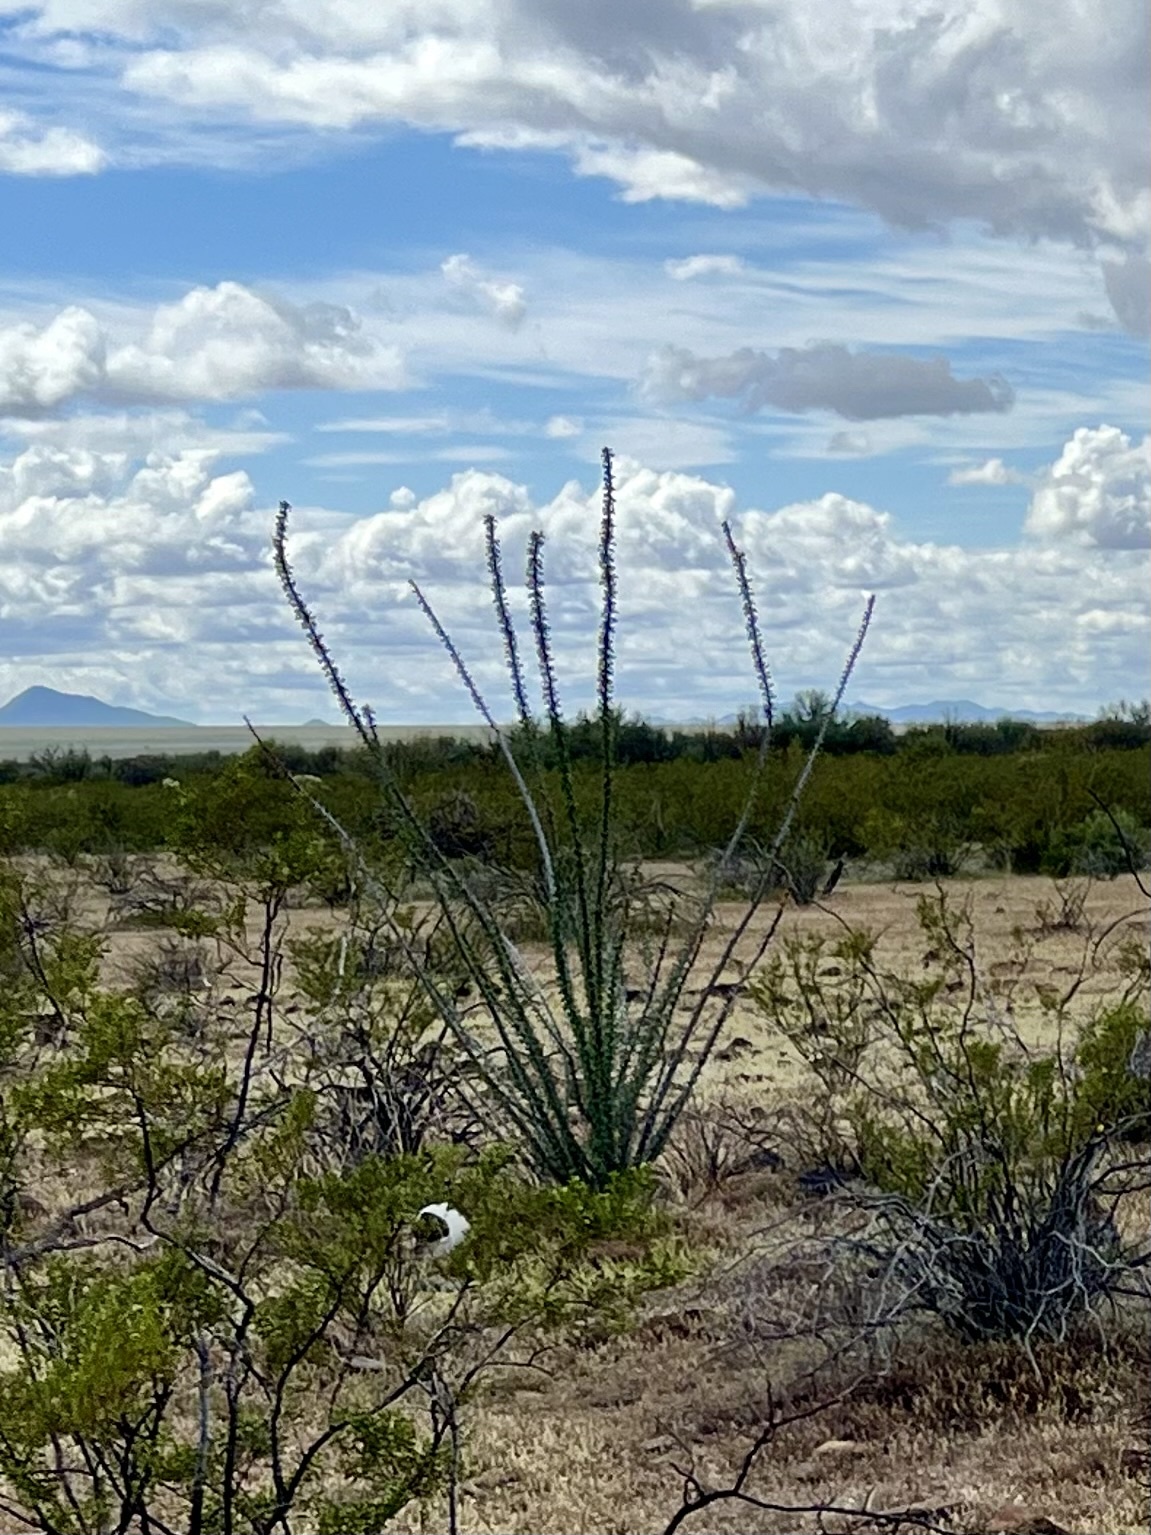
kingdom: Plantae
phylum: Tracheophyta
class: Magnoliopsida
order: Ericales
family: Fouquieriaceae
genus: Fouquieria
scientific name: Fouquieria splendens
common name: Vine-cactus
